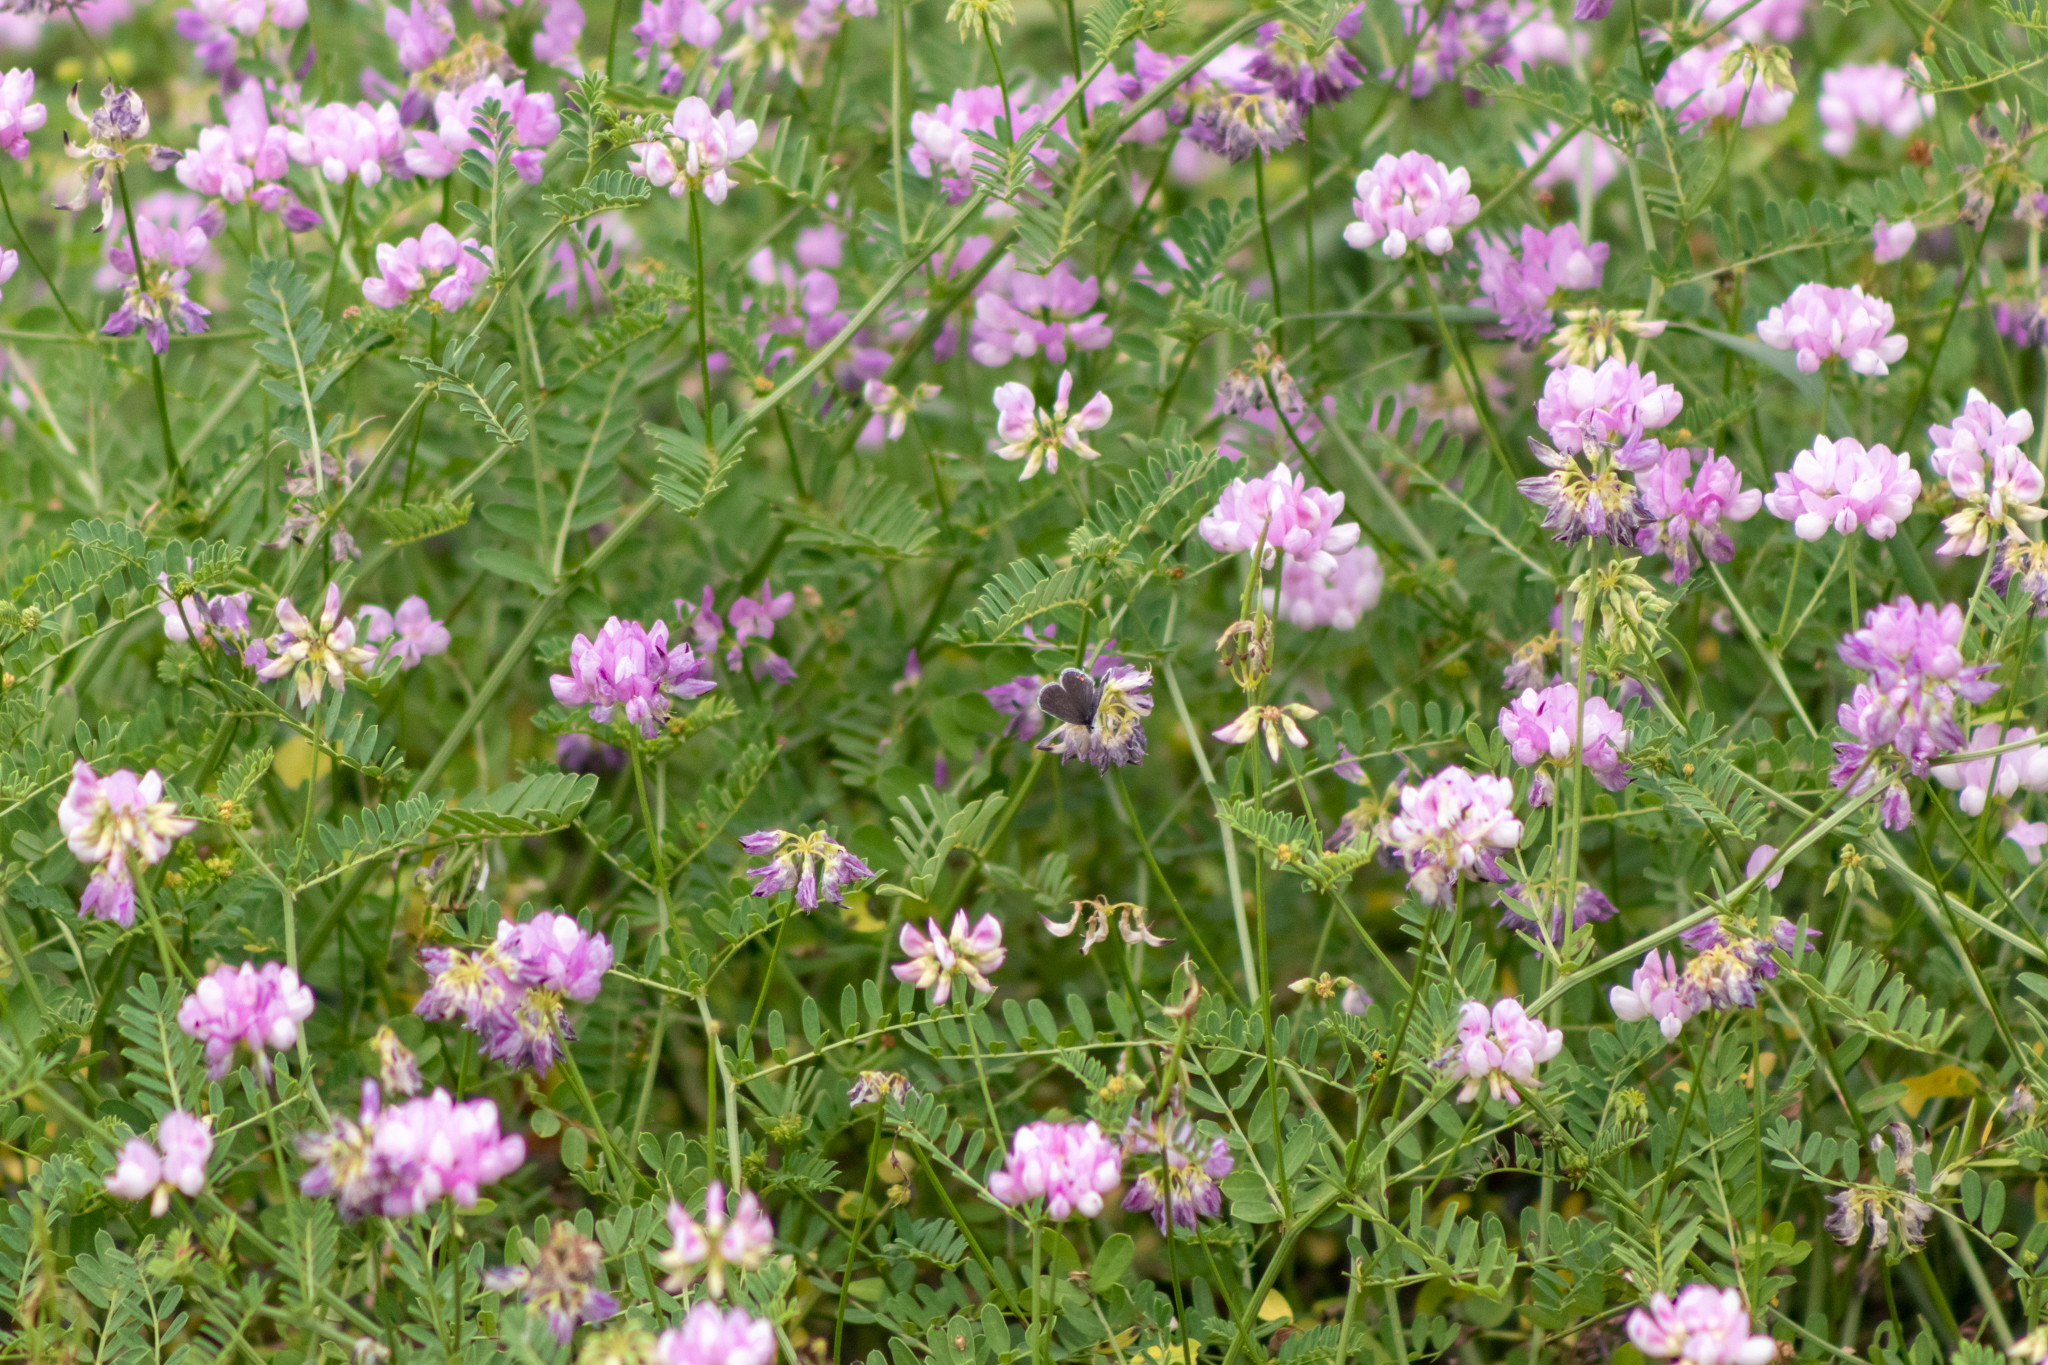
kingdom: Plantae
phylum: Tracheophyta
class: Magnoliopsida
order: Fabales
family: Fabaceae
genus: Coronilla
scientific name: Coronilla varia
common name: Crownvetch
